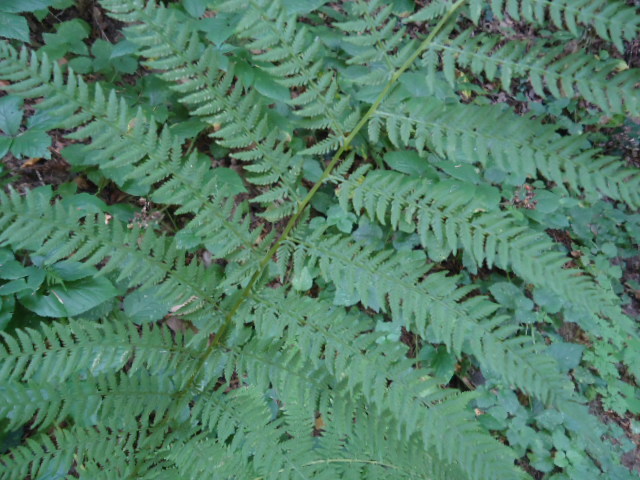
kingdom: Plantae
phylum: Tracheophyta
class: Polypodiopsida
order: Polypodiales
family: Athyriaceae
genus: Athyrium
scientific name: Athyrium filix-femina
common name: Lady fern
